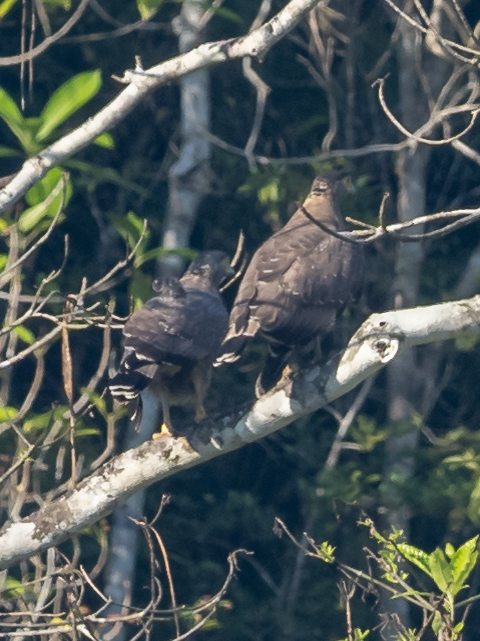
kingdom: Animalia
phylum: Chordata
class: Aves
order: Accipitriformes
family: Accipitridae
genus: Spilornis
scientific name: Spilornis cheela
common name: Crested serpent eagle
